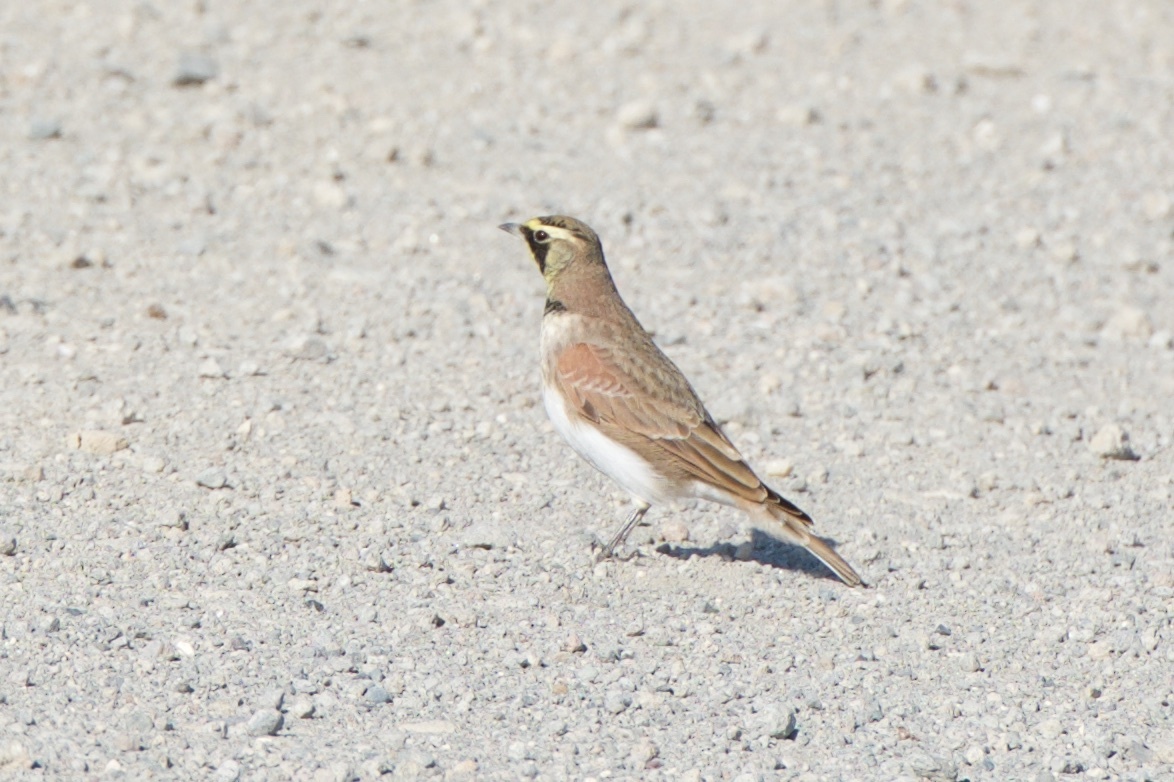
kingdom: Animalia
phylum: Chordata
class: Aves
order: Passeriformes
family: Alaudidae
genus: Eremophila
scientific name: Eremophila alpestris
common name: Horned lark
